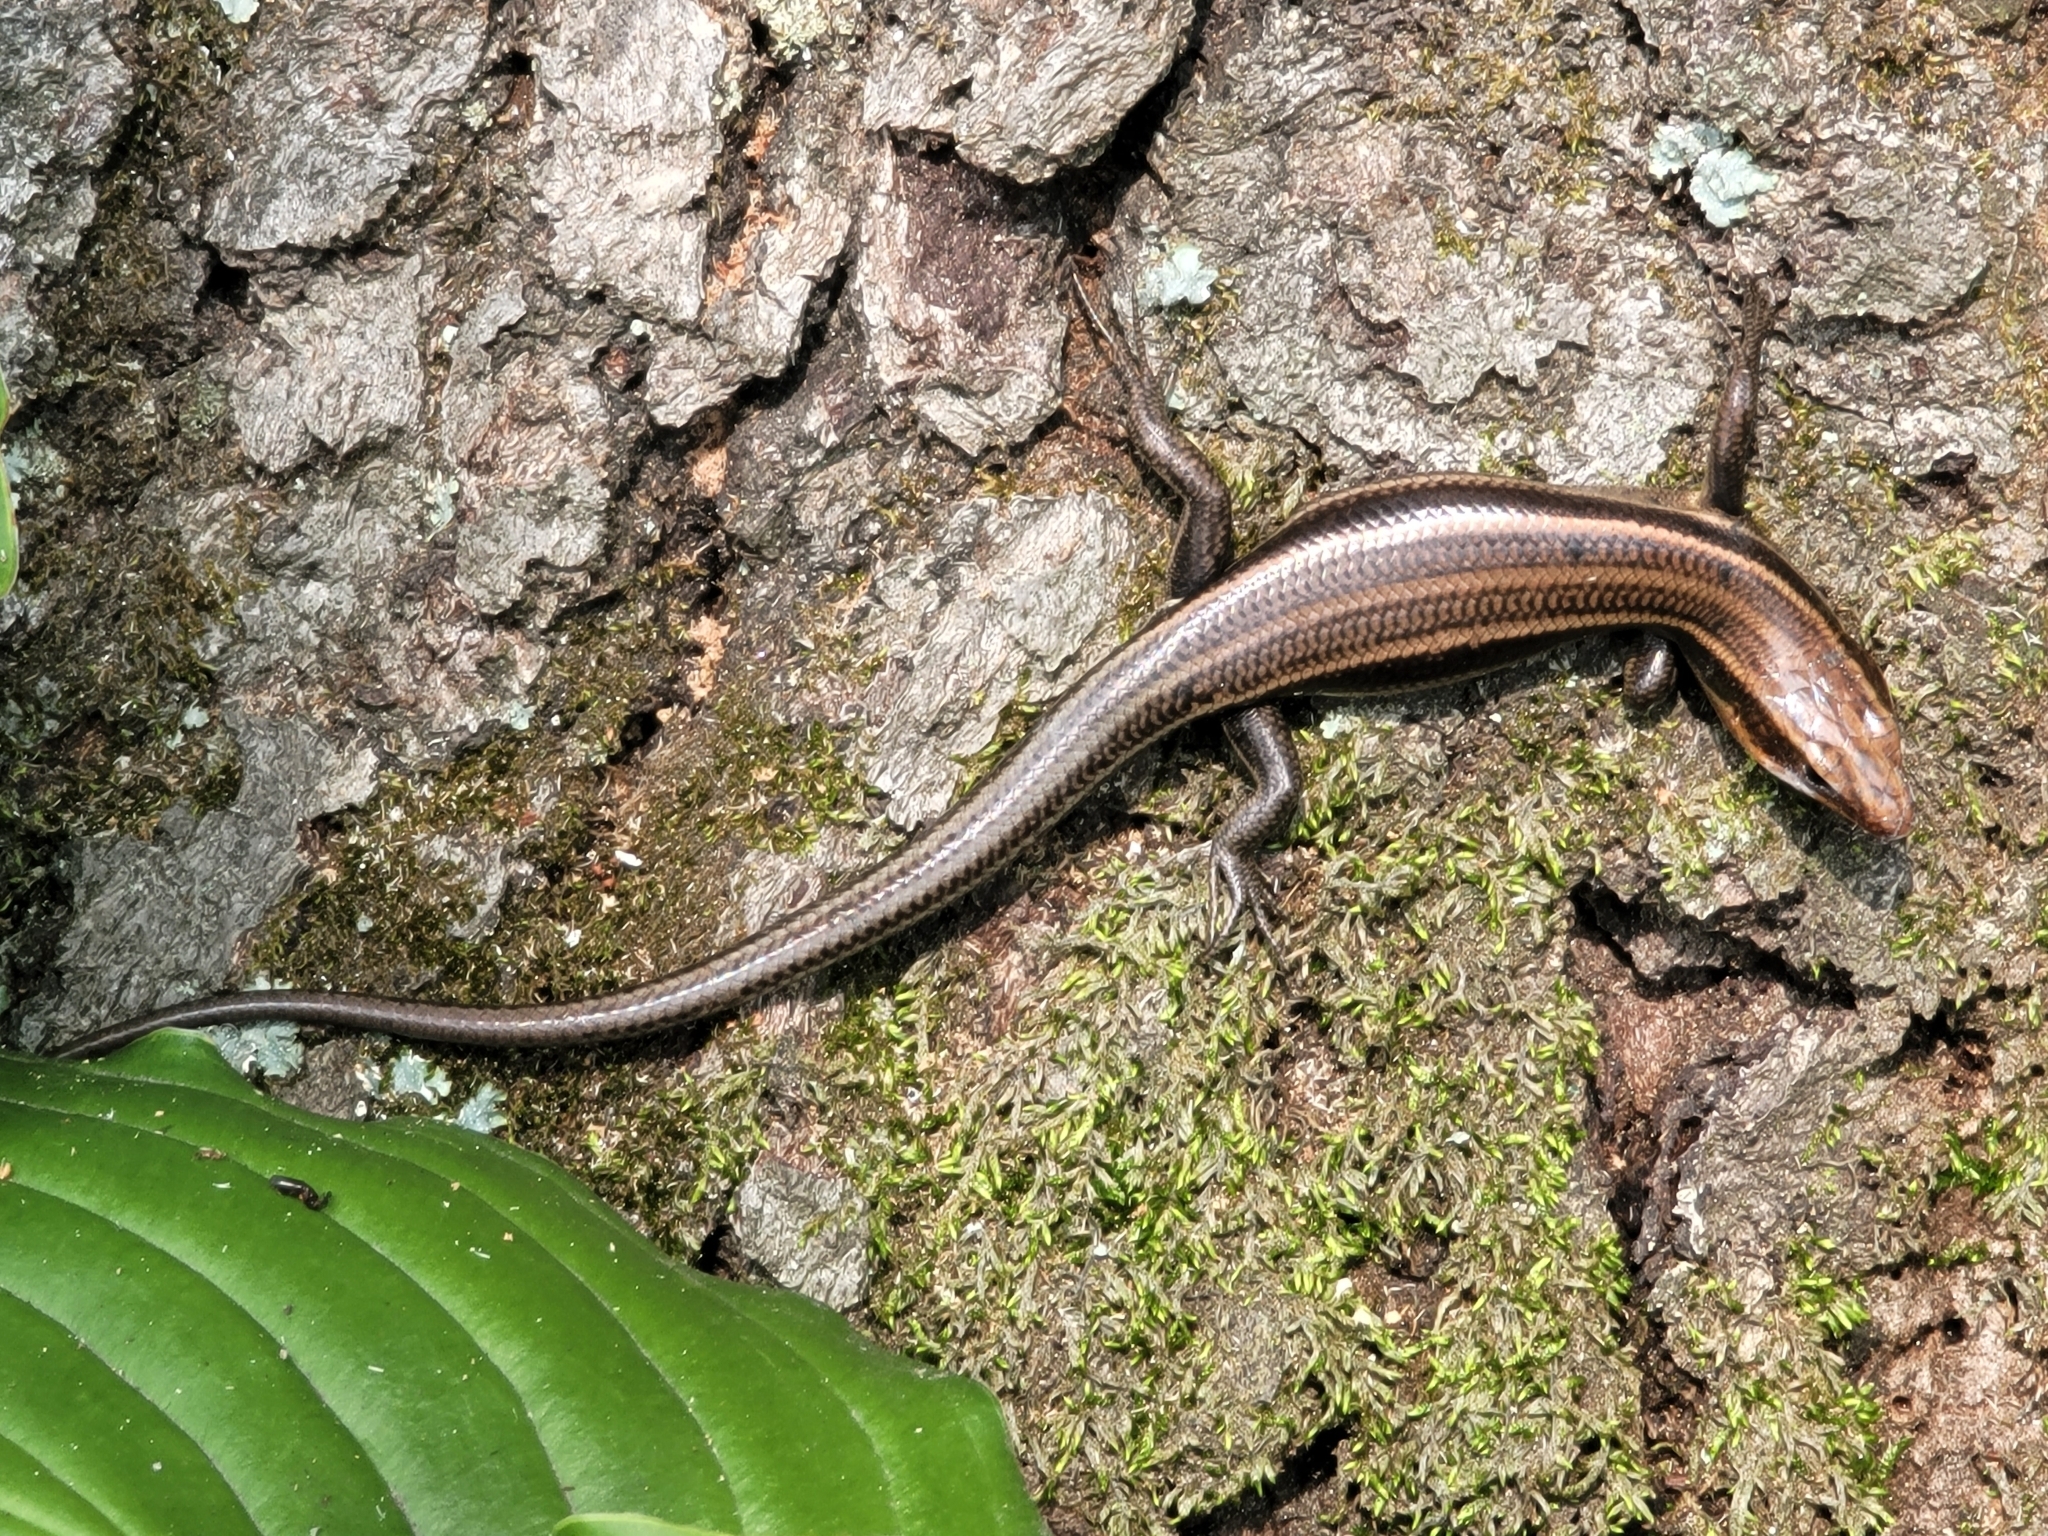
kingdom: Animalia
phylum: Chordata
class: Squamata
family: Scincidae
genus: Plestiodon
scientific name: Plestiodon fasciatus
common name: Five-lined skink
